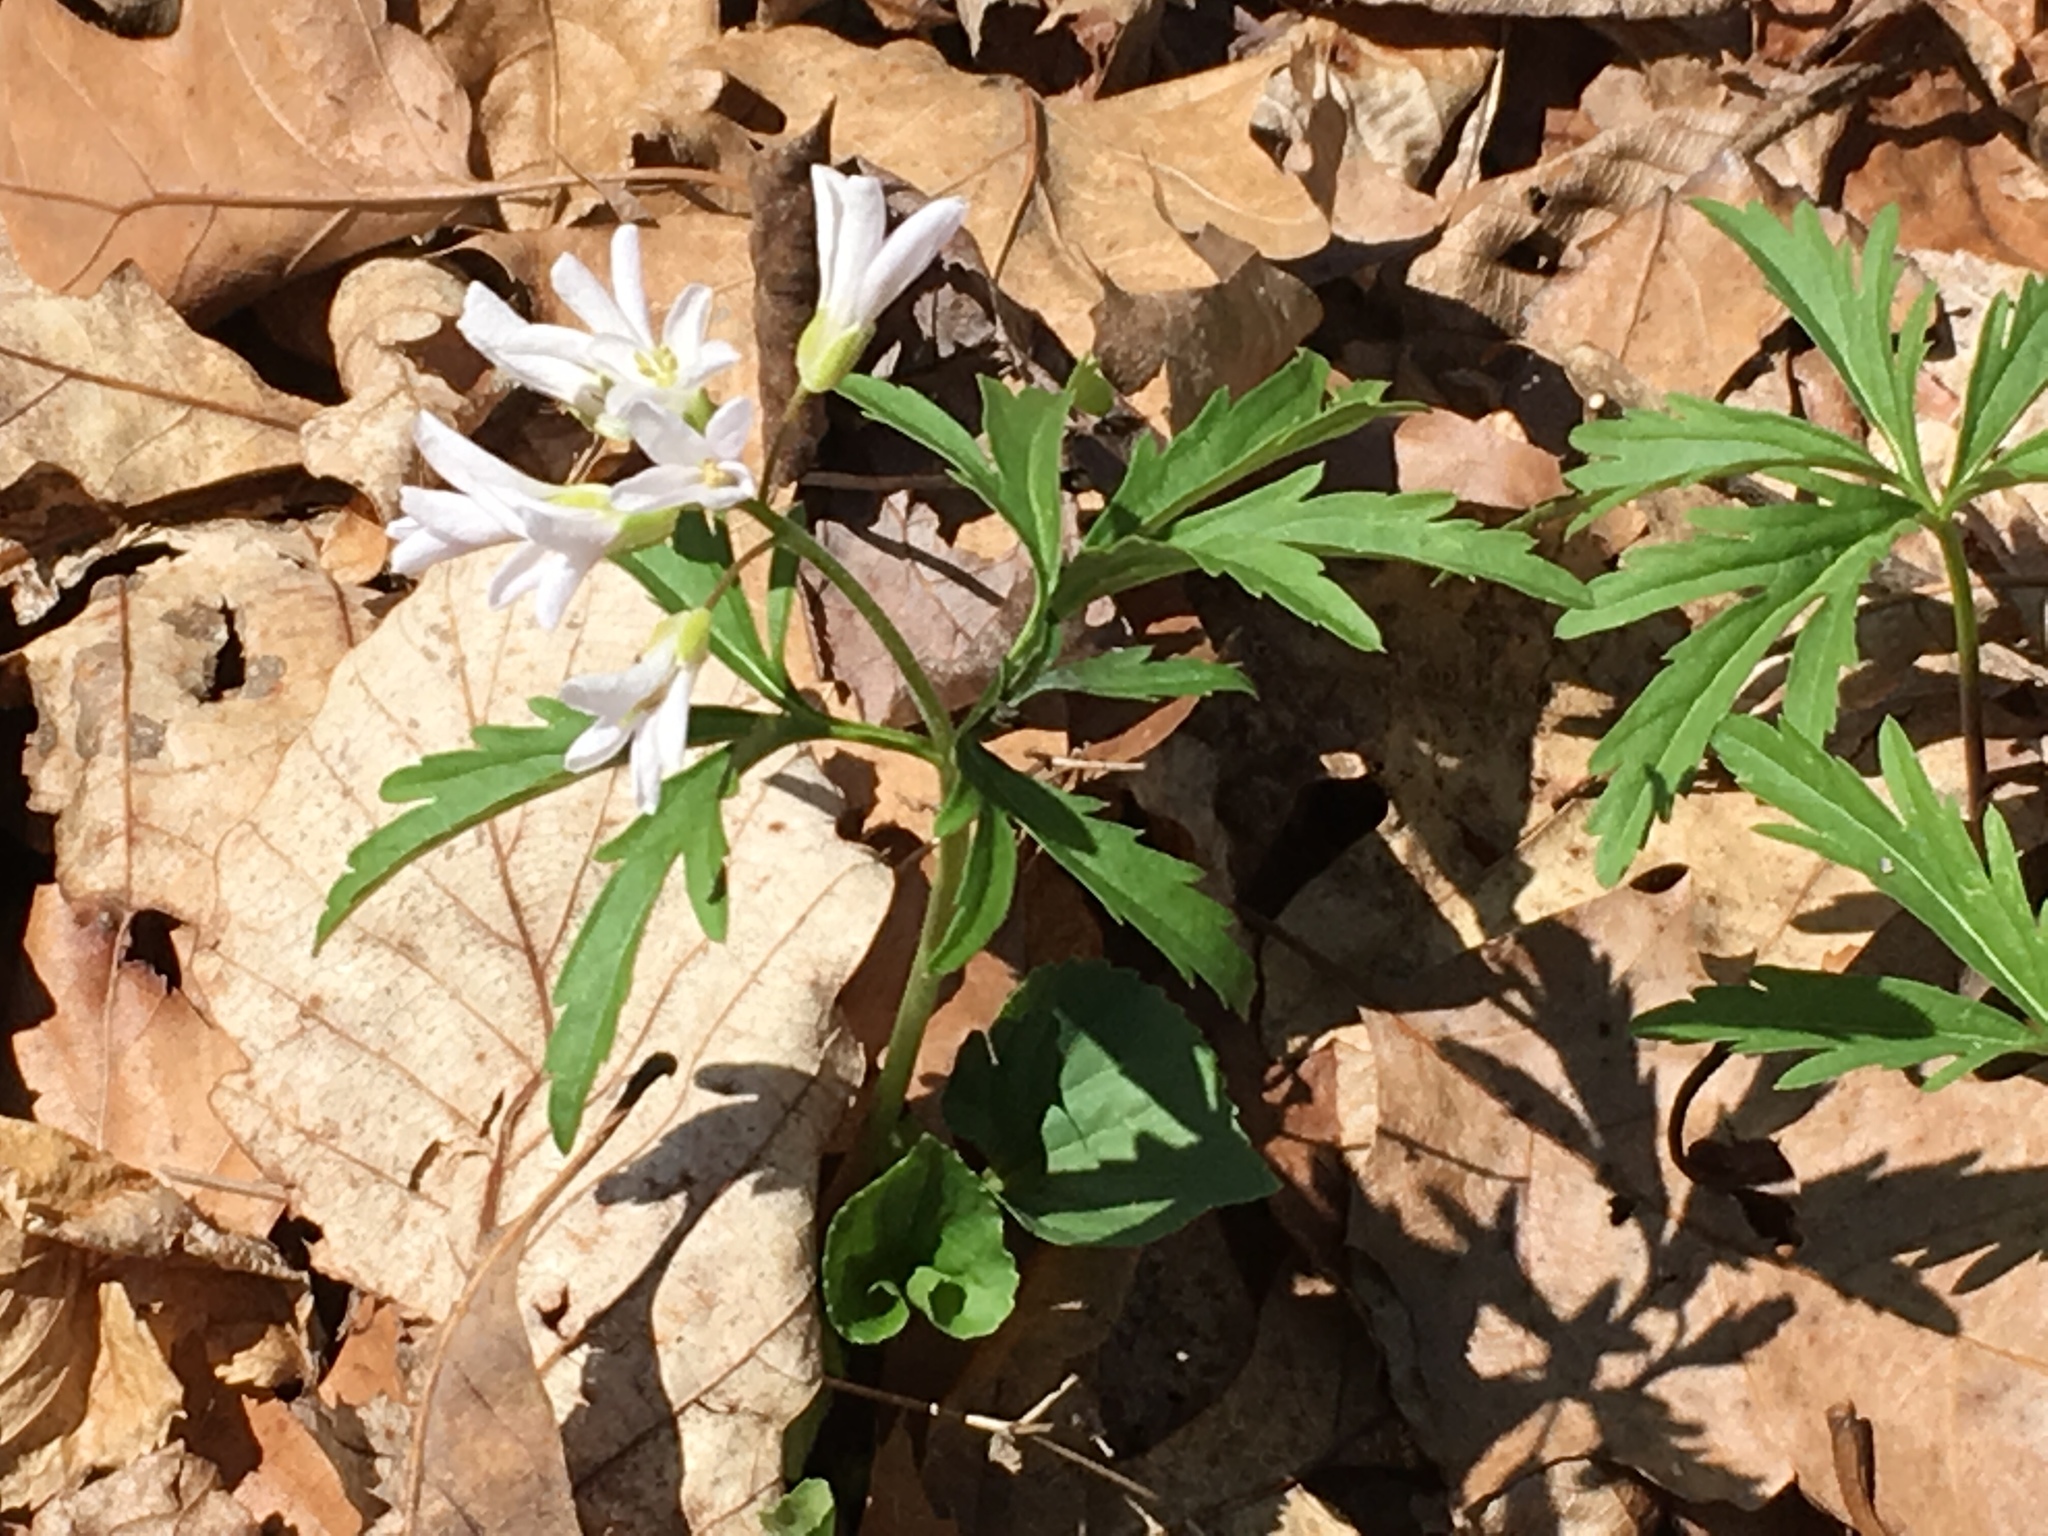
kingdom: Plantae
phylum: Tracheophyta
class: Magnoliopsida
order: Brassicales
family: Brassicaceae
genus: Cardamine
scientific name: Cardamine concatenata
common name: Cut-leaf toothcup
